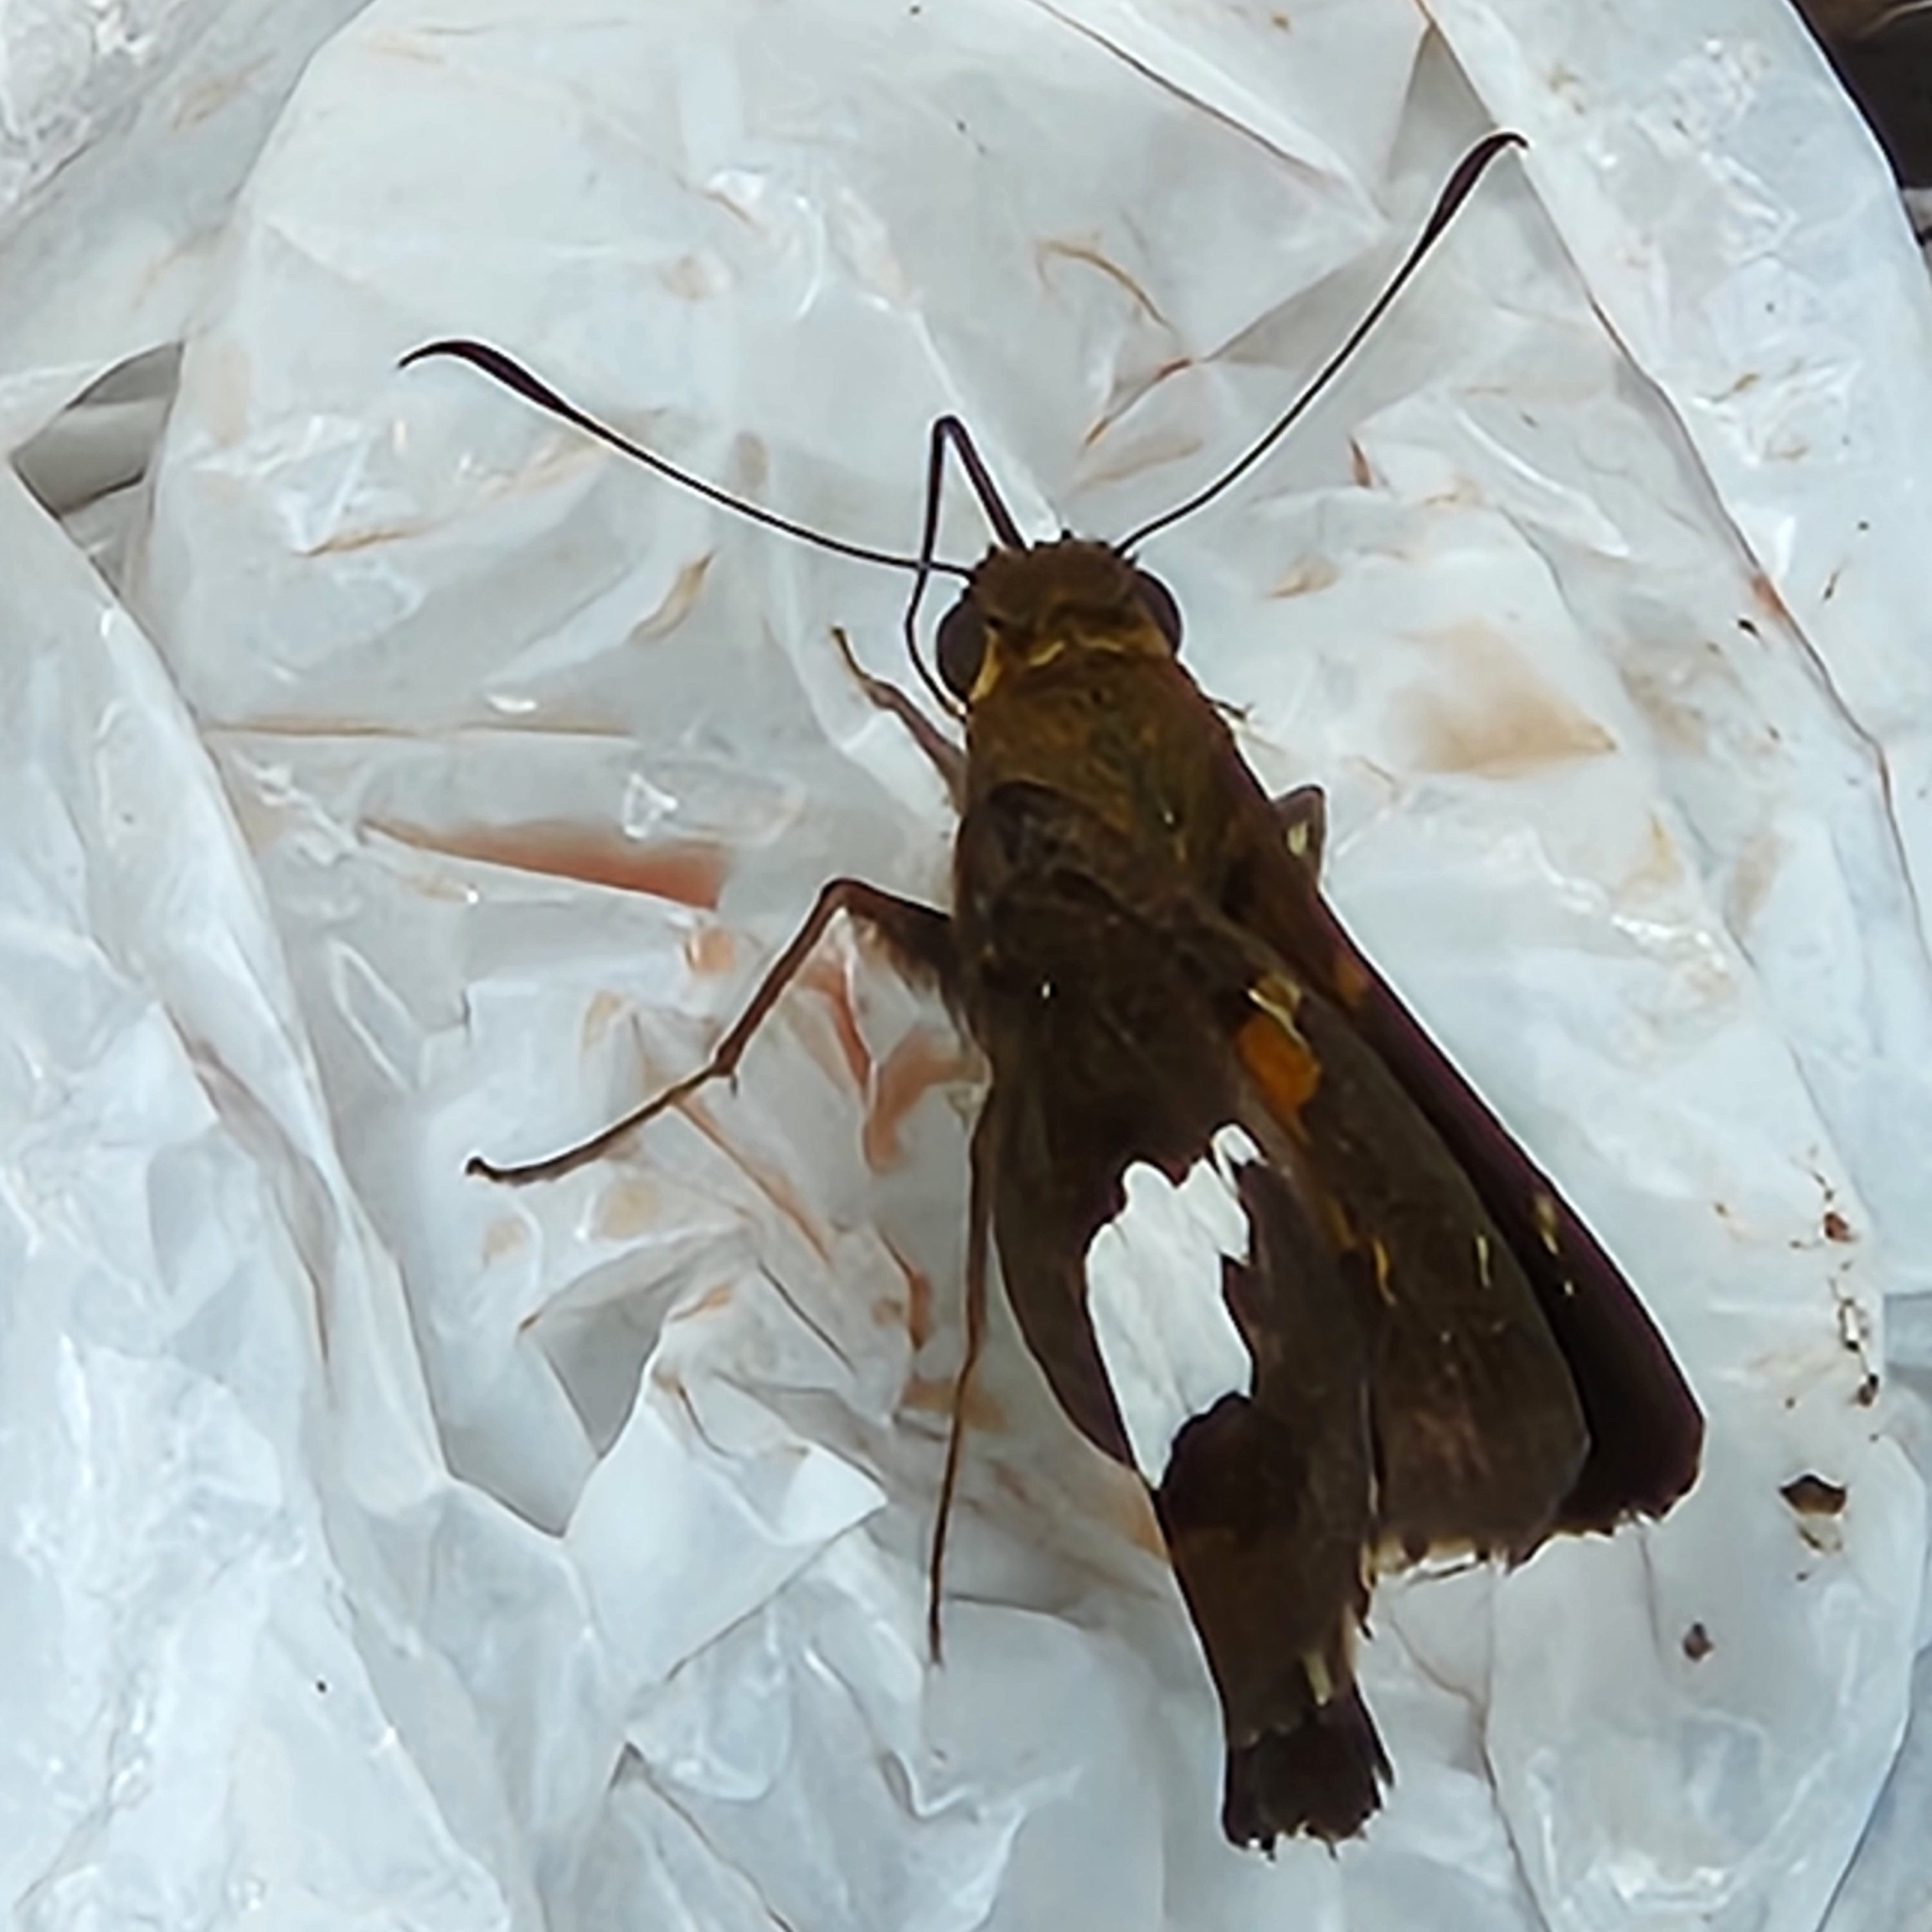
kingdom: Animalia
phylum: Arthropoda
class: Insecta
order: Lepidoptera
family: Hesperiidae
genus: Epargyreus
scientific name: Epargyreus clarus
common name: Silver-spotted skipper
